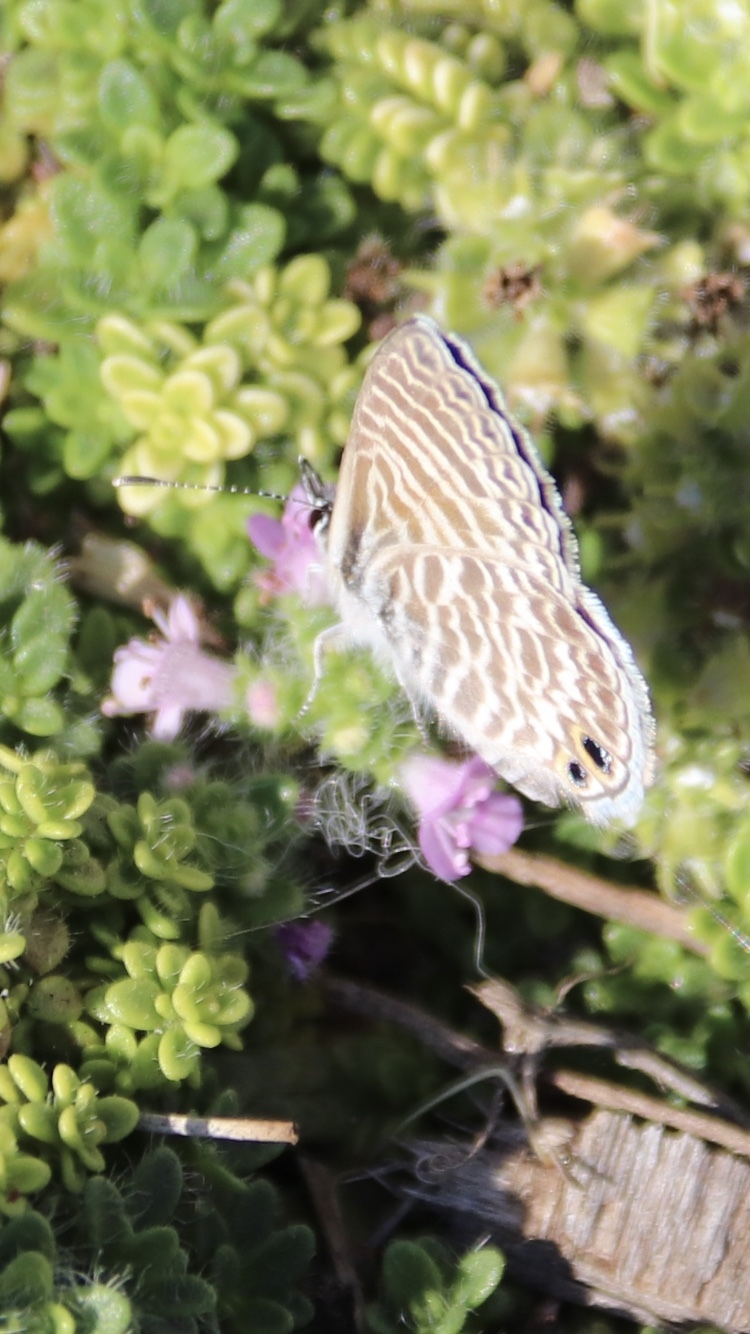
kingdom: Animalia
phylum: Arthropoda
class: Insecta
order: Lepidoptera
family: Lycaenidae
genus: Leptotes
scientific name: Leptotes marina
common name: Marine blue
